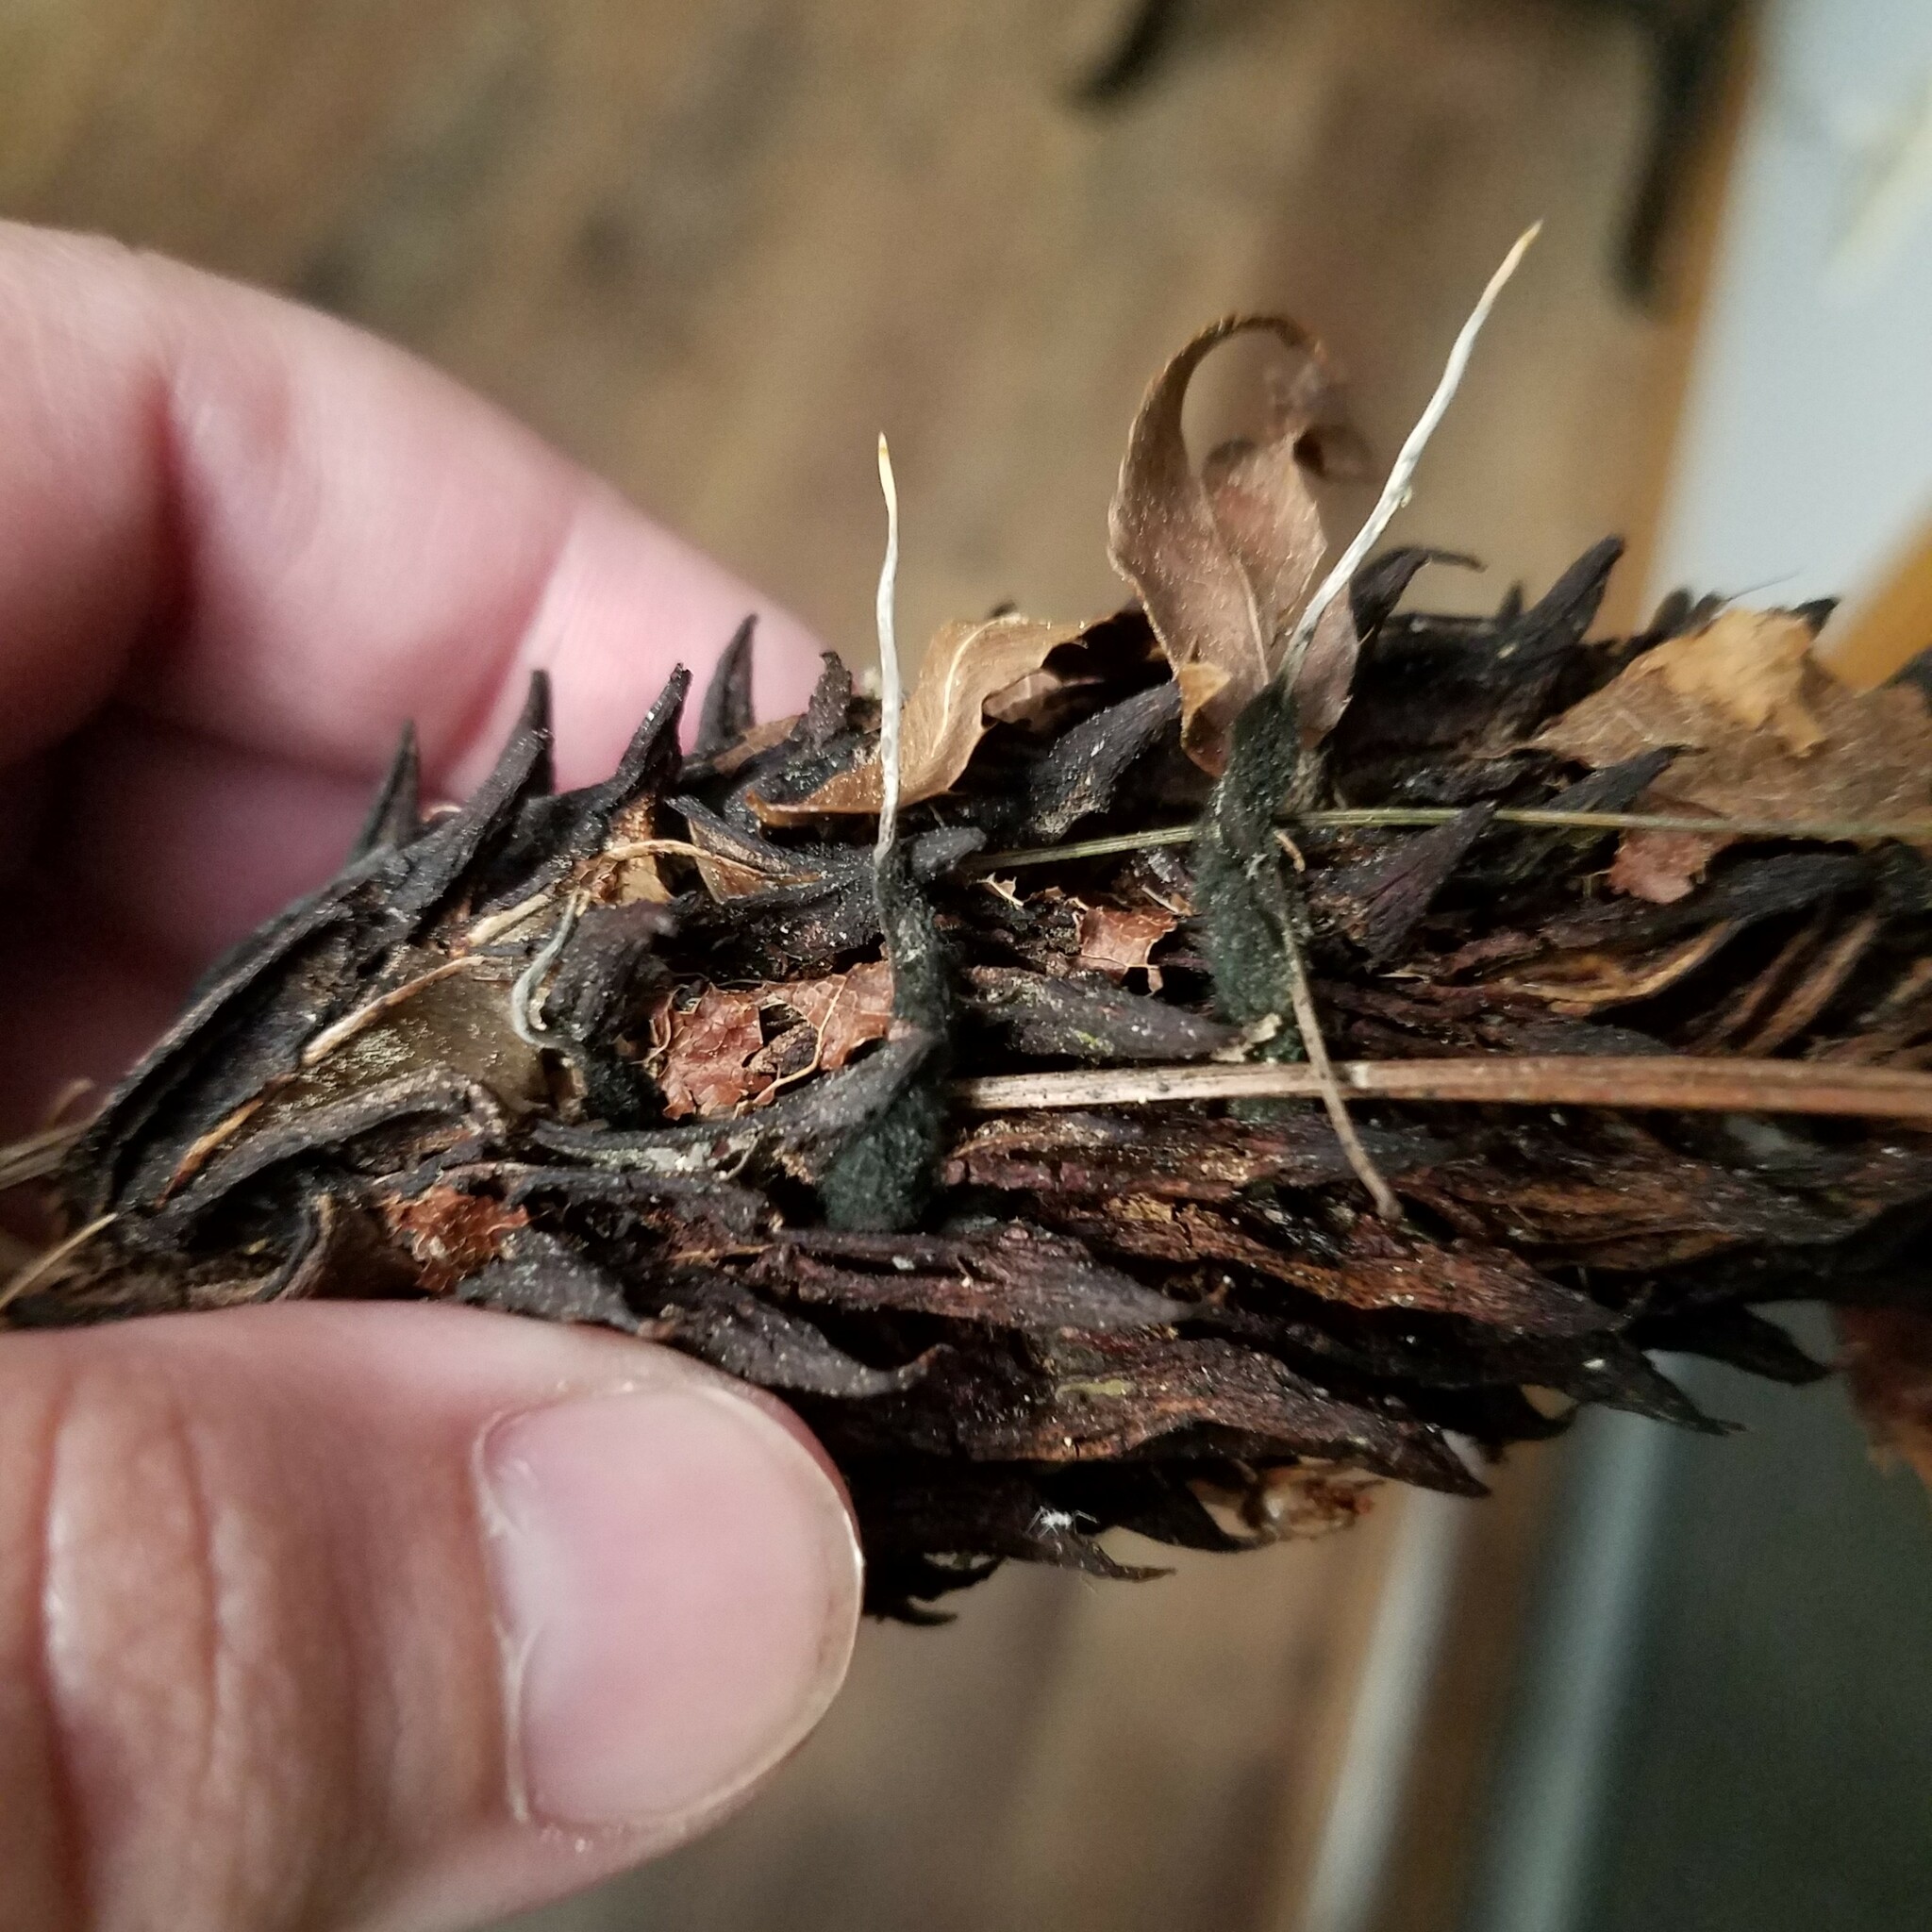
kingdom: Fungi
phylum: Ascomycota
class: Sordariomycetes
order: Xylariales
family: Xylariaceae
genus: Xylaria
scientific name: Xylaria magnoliae
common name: Magnolia-cone xylaria
